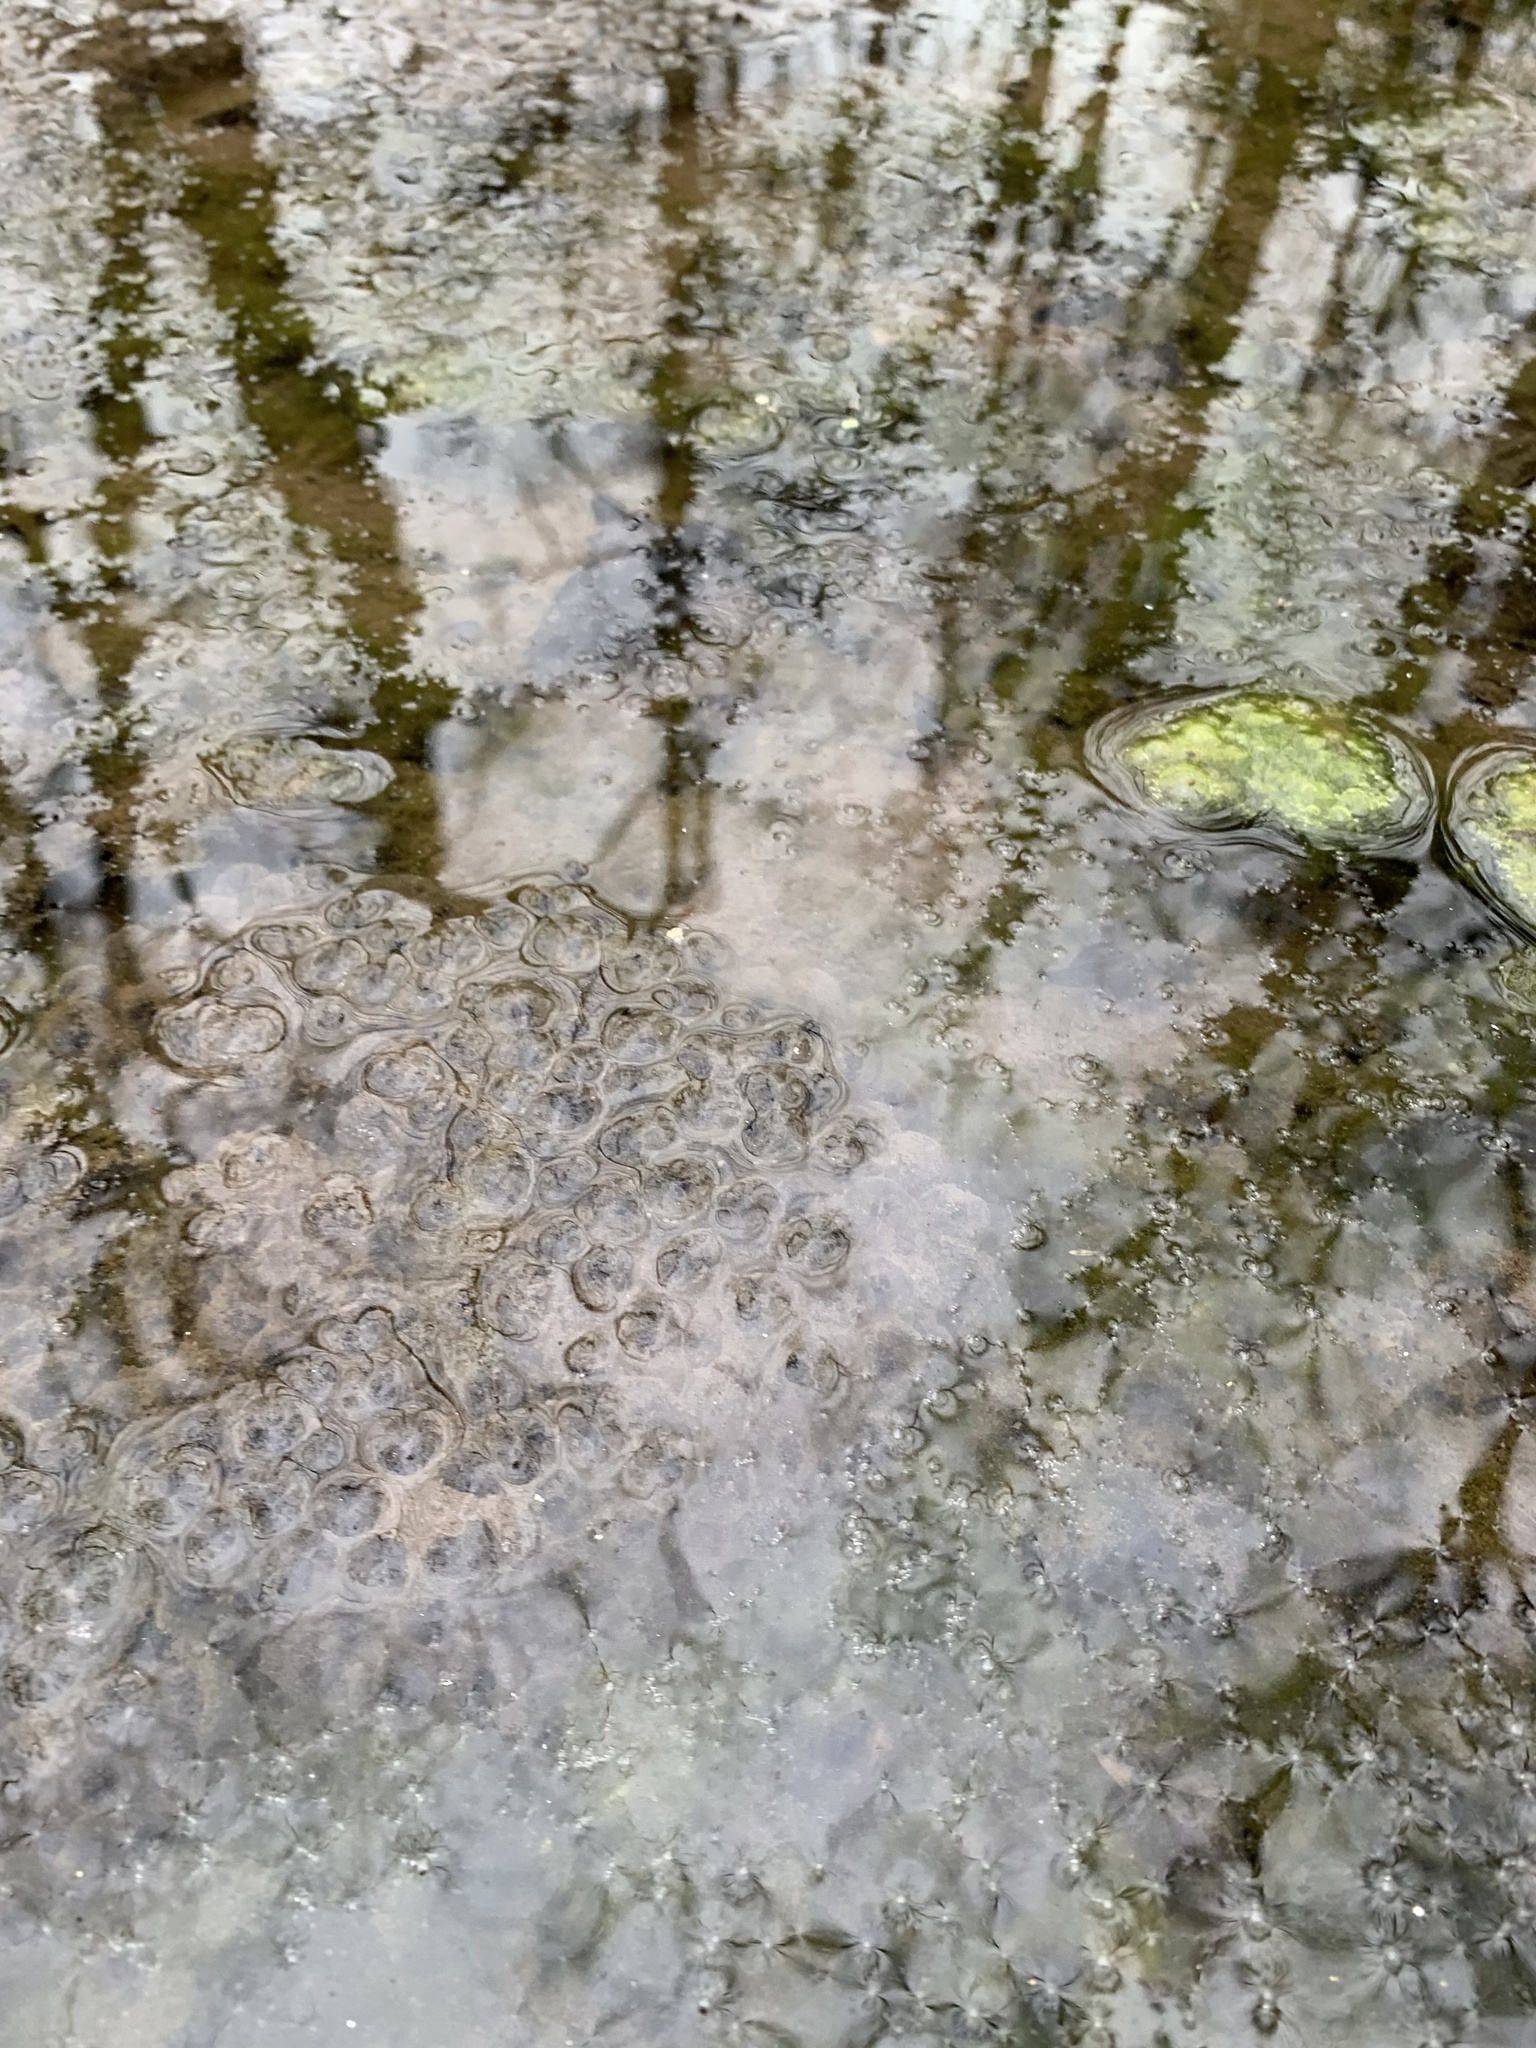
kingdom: Animalia
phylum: Chordata
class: Amphibia
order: Anura
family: Ranidae
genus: Lithobates
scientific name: Lithobates sylvaticus
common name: Wood frog
